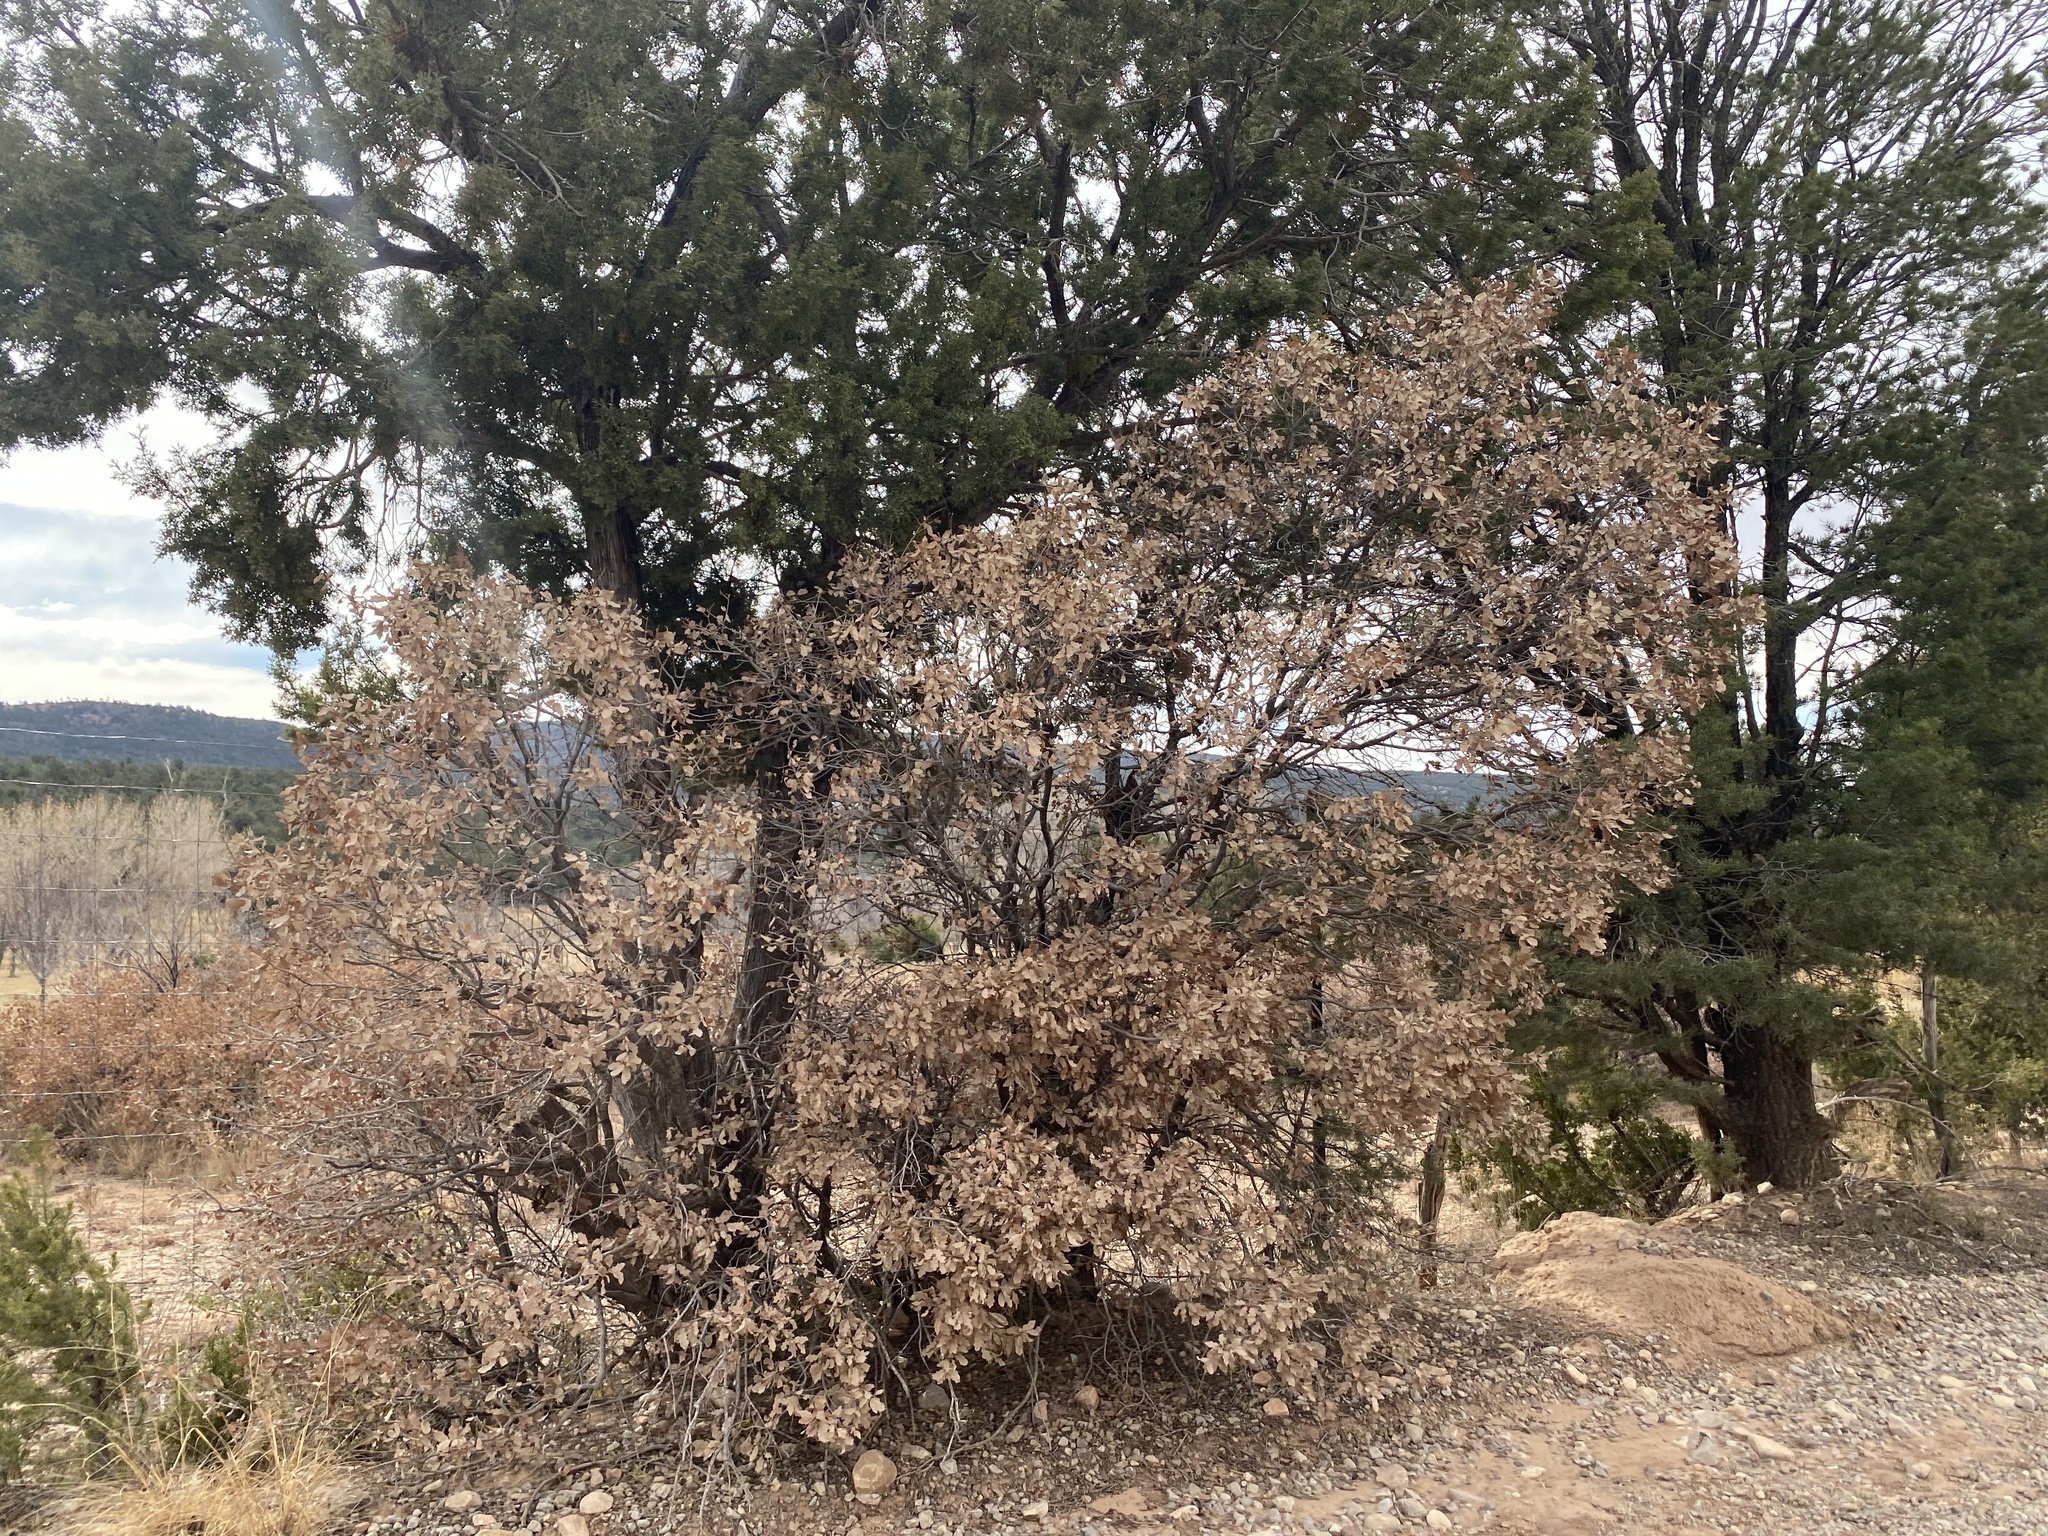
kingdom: Plantae
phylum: Tracheophyta
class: Magnoliopsida
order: Fagales
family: Fagaceae
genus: Quercus
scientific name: Quercus undulata
